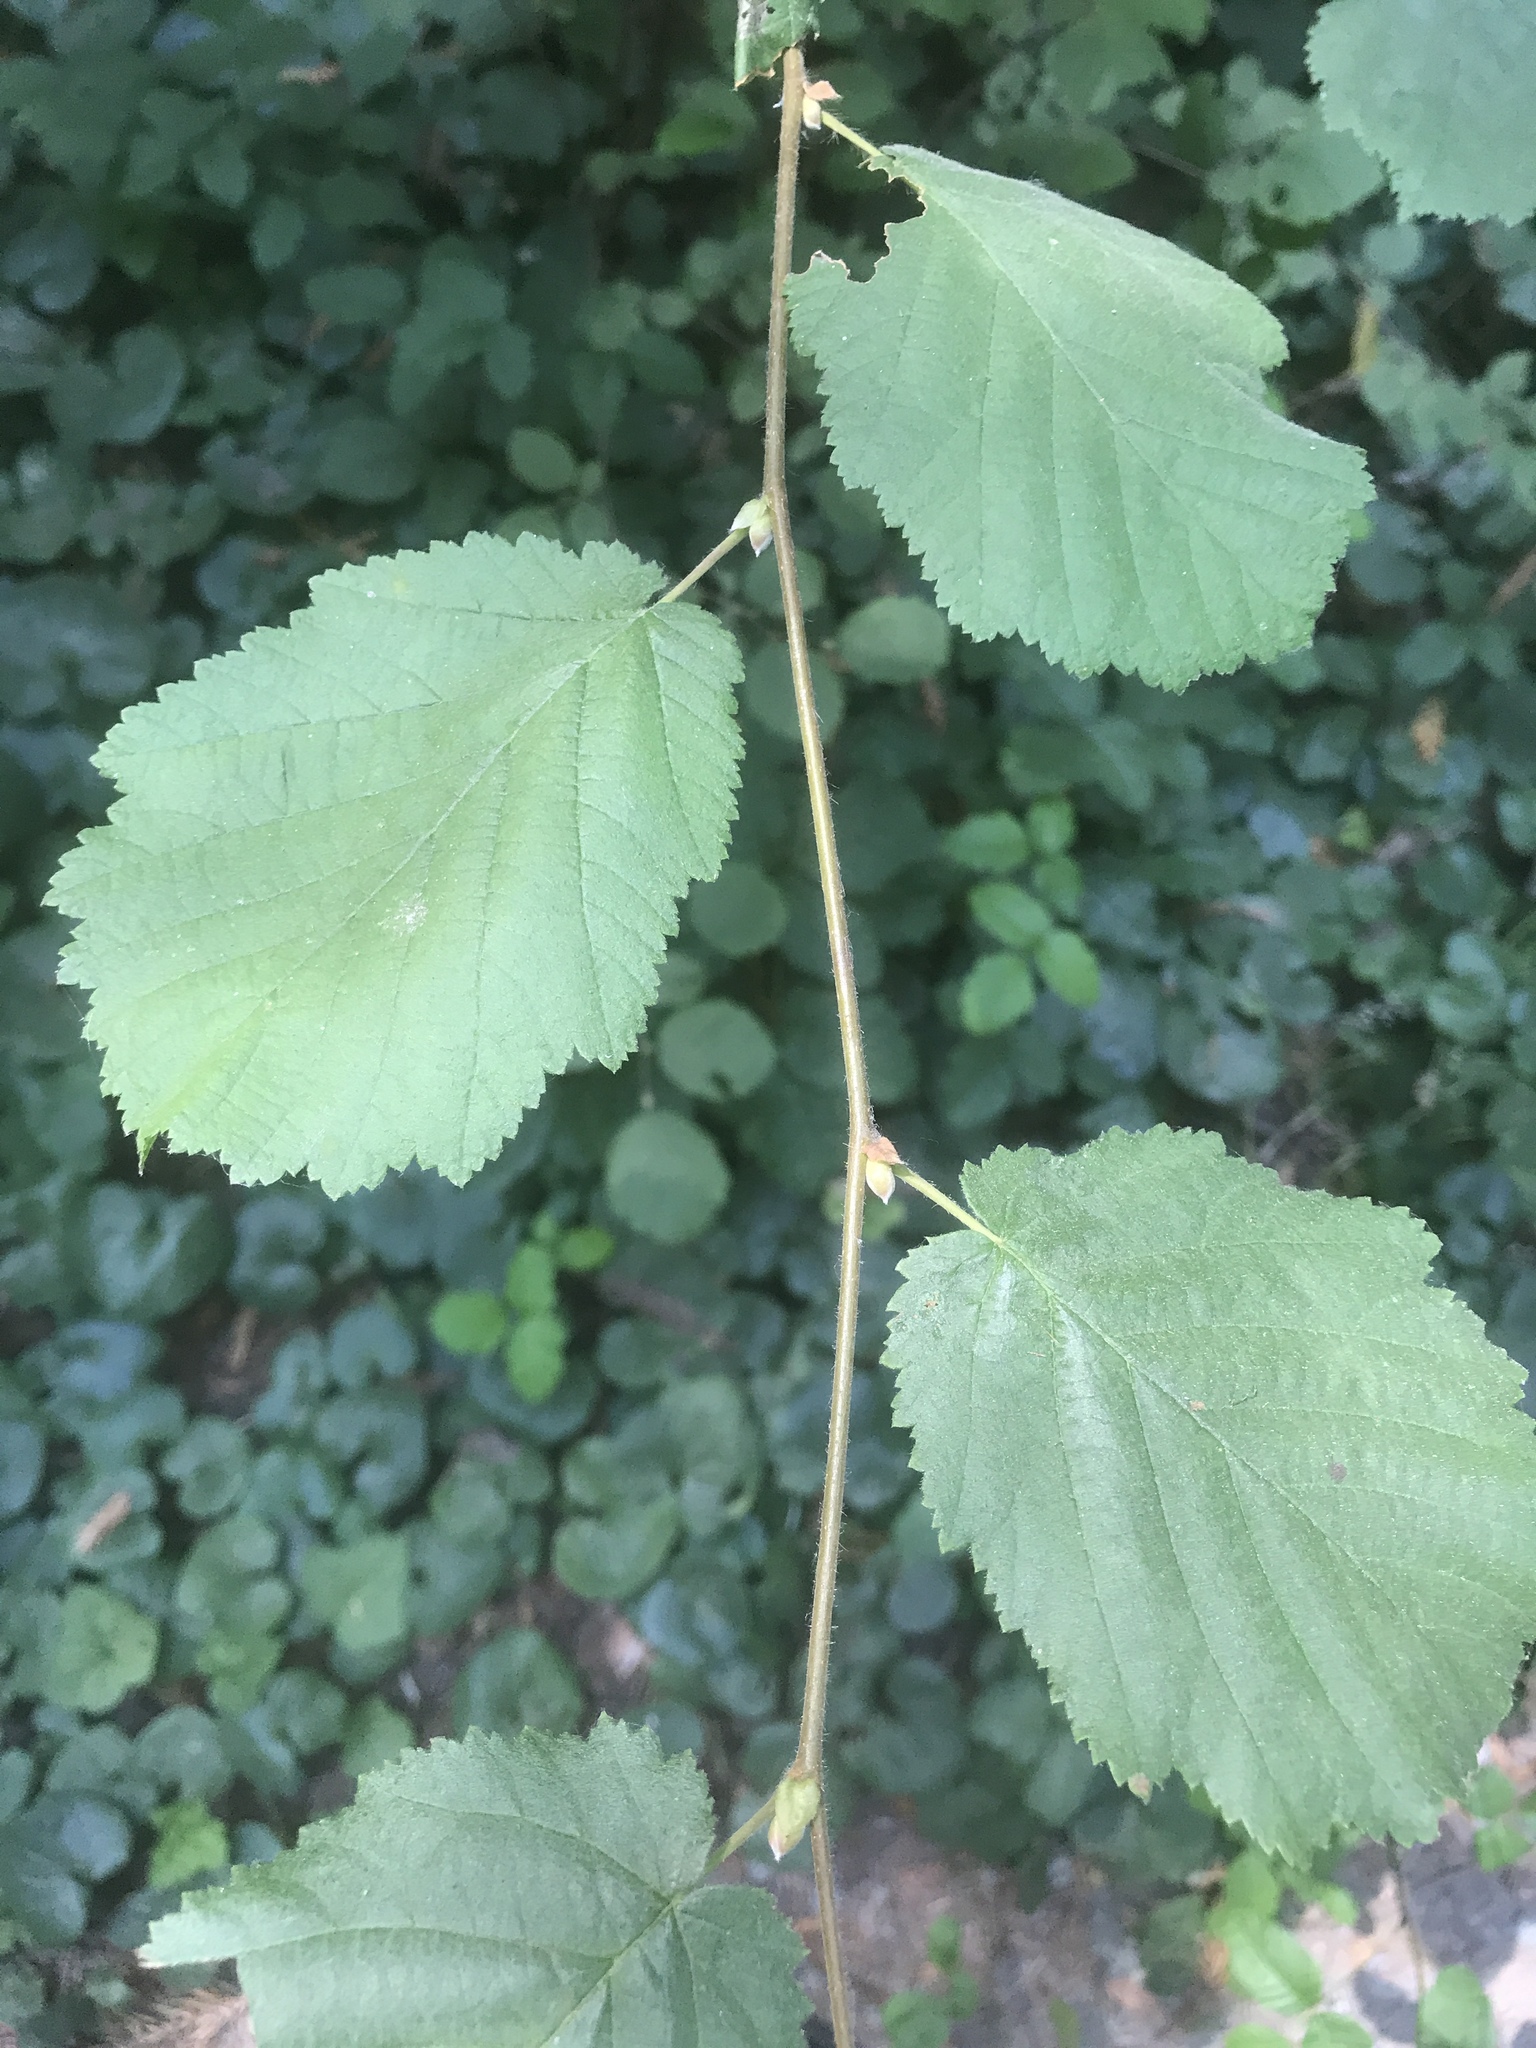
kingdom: Plantae
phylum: Tracheophyta
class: Magnoliopsida
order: Fagales
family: Betulaceae
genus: Corylus
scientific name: Corylus cornuta
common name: Beaked hazel
